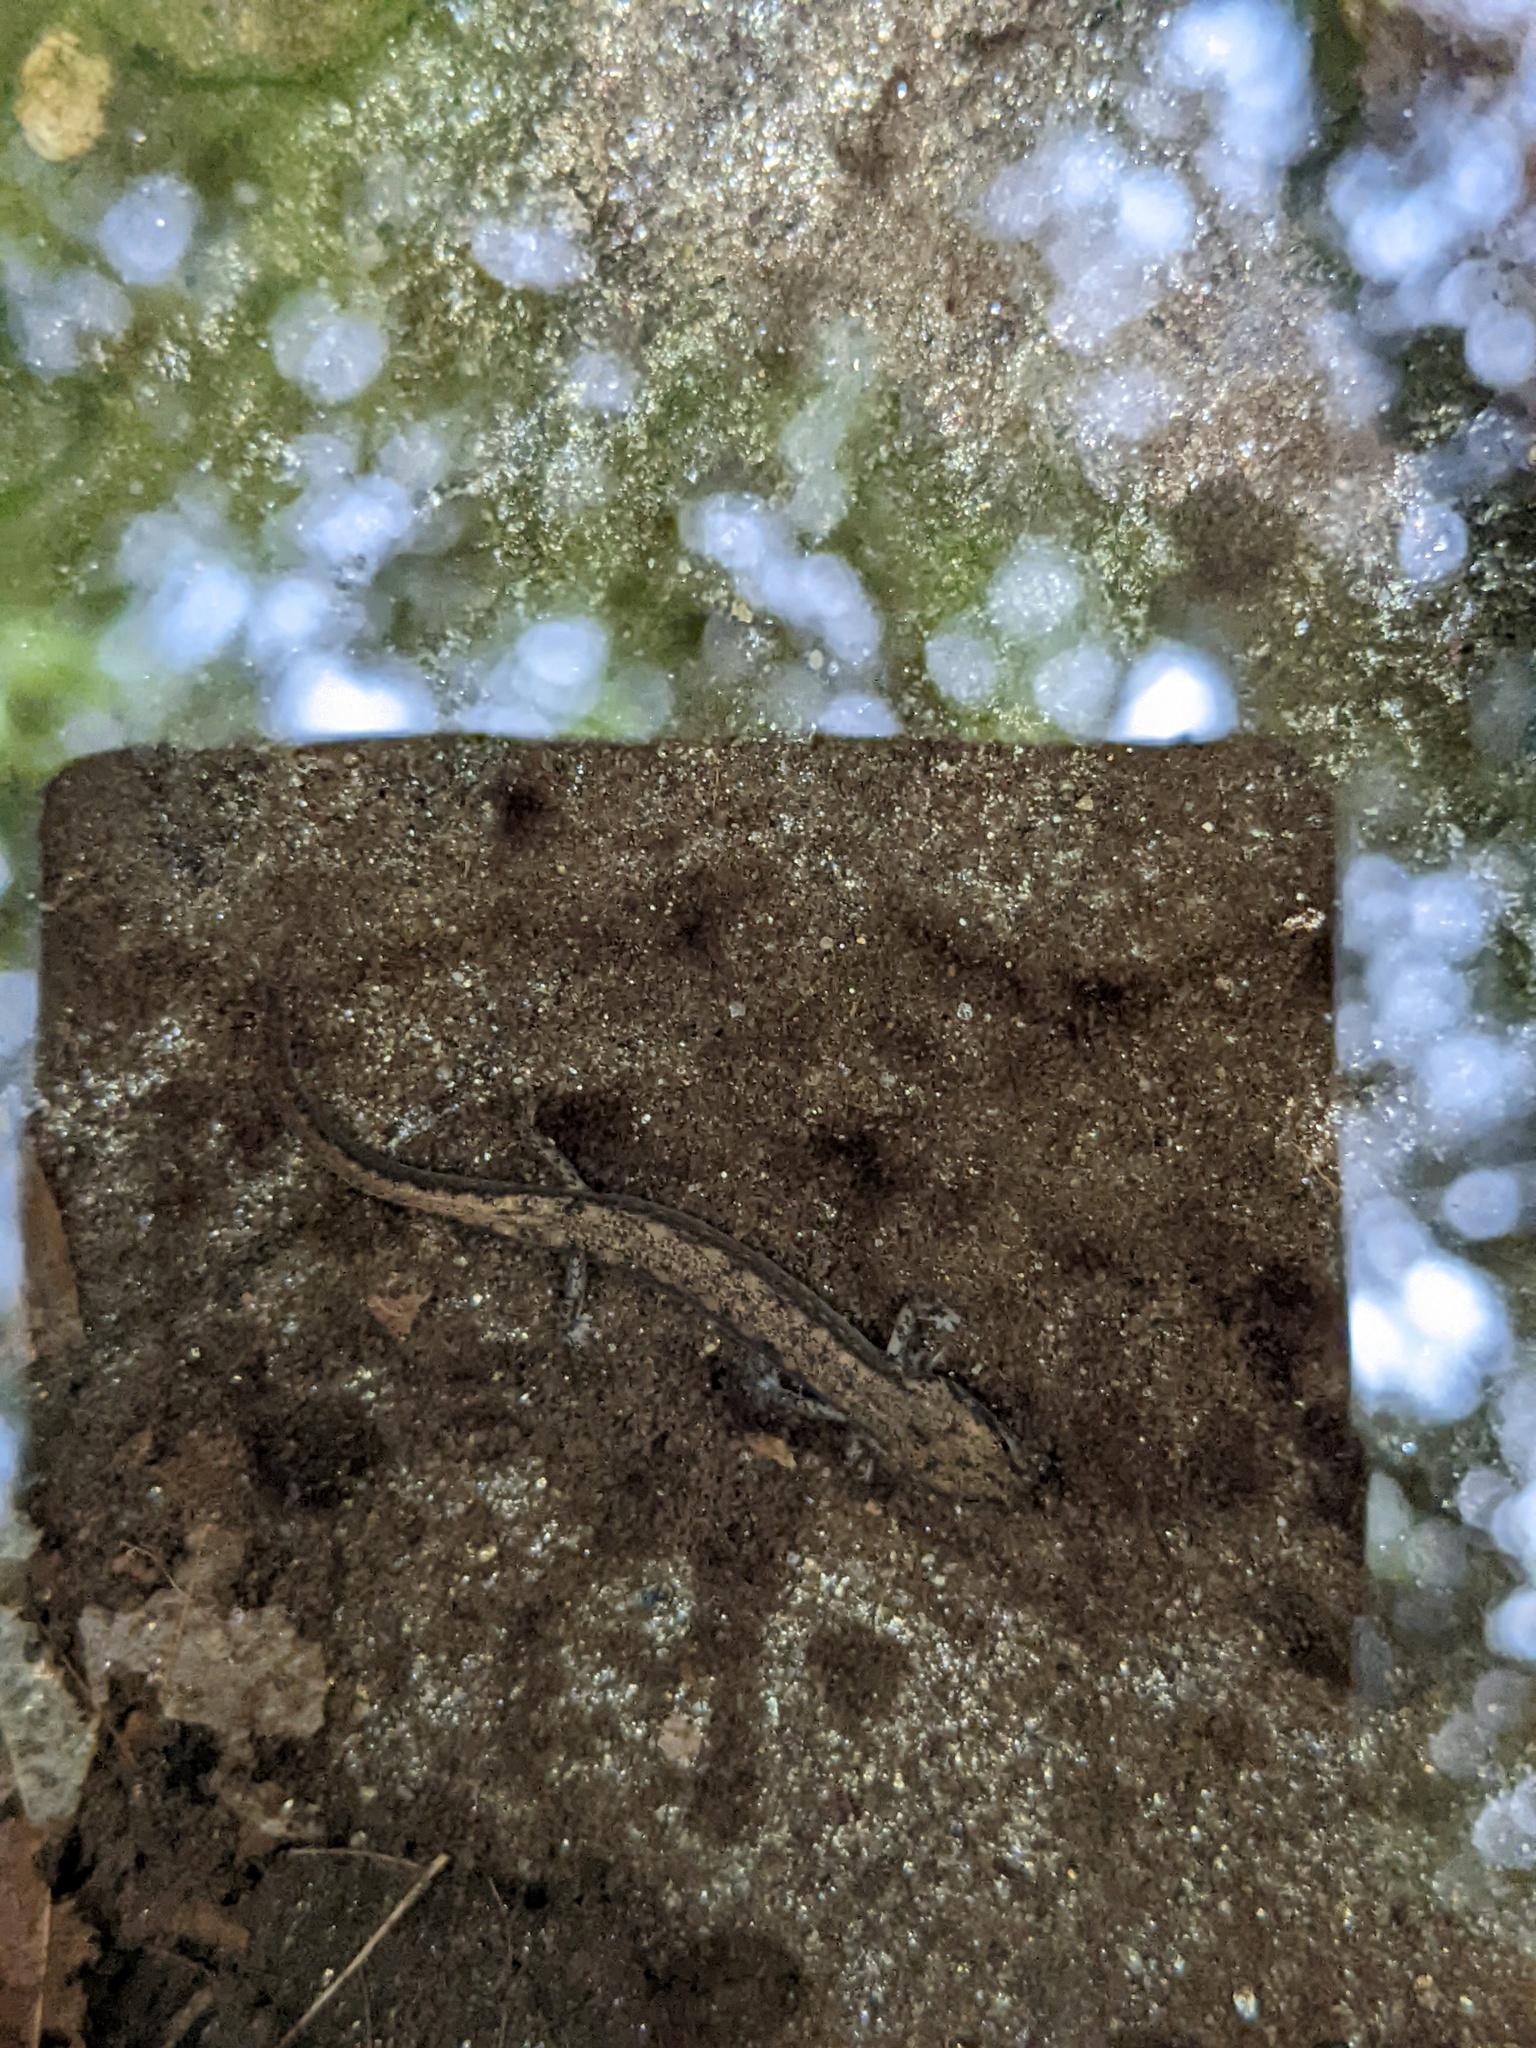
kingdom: Animalia
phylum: Chordata
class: Amphibia
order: Caudata
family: Plethodontidae
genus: Eurycea
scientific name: Eurycea bislineata
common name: Northern two-lined salamander
